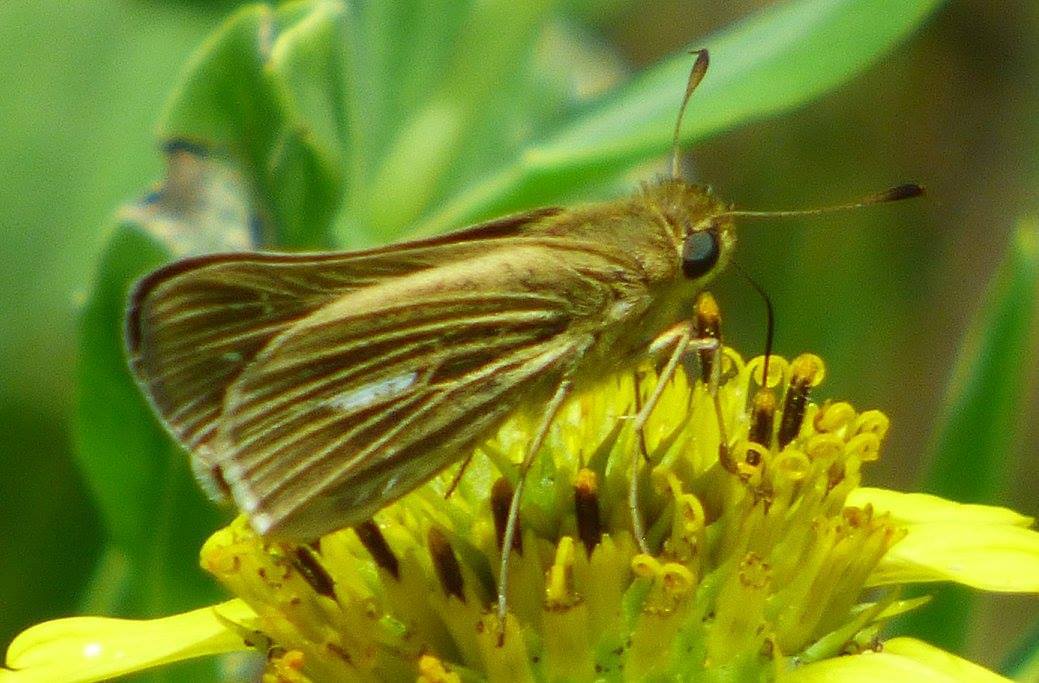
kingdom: Animalia
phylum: Arthropoda
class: Insecta
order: Lepidoptera
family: Hesperiidae
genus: Panoquina
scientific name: Panoquina panoquin
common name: Salt marsh skipper
